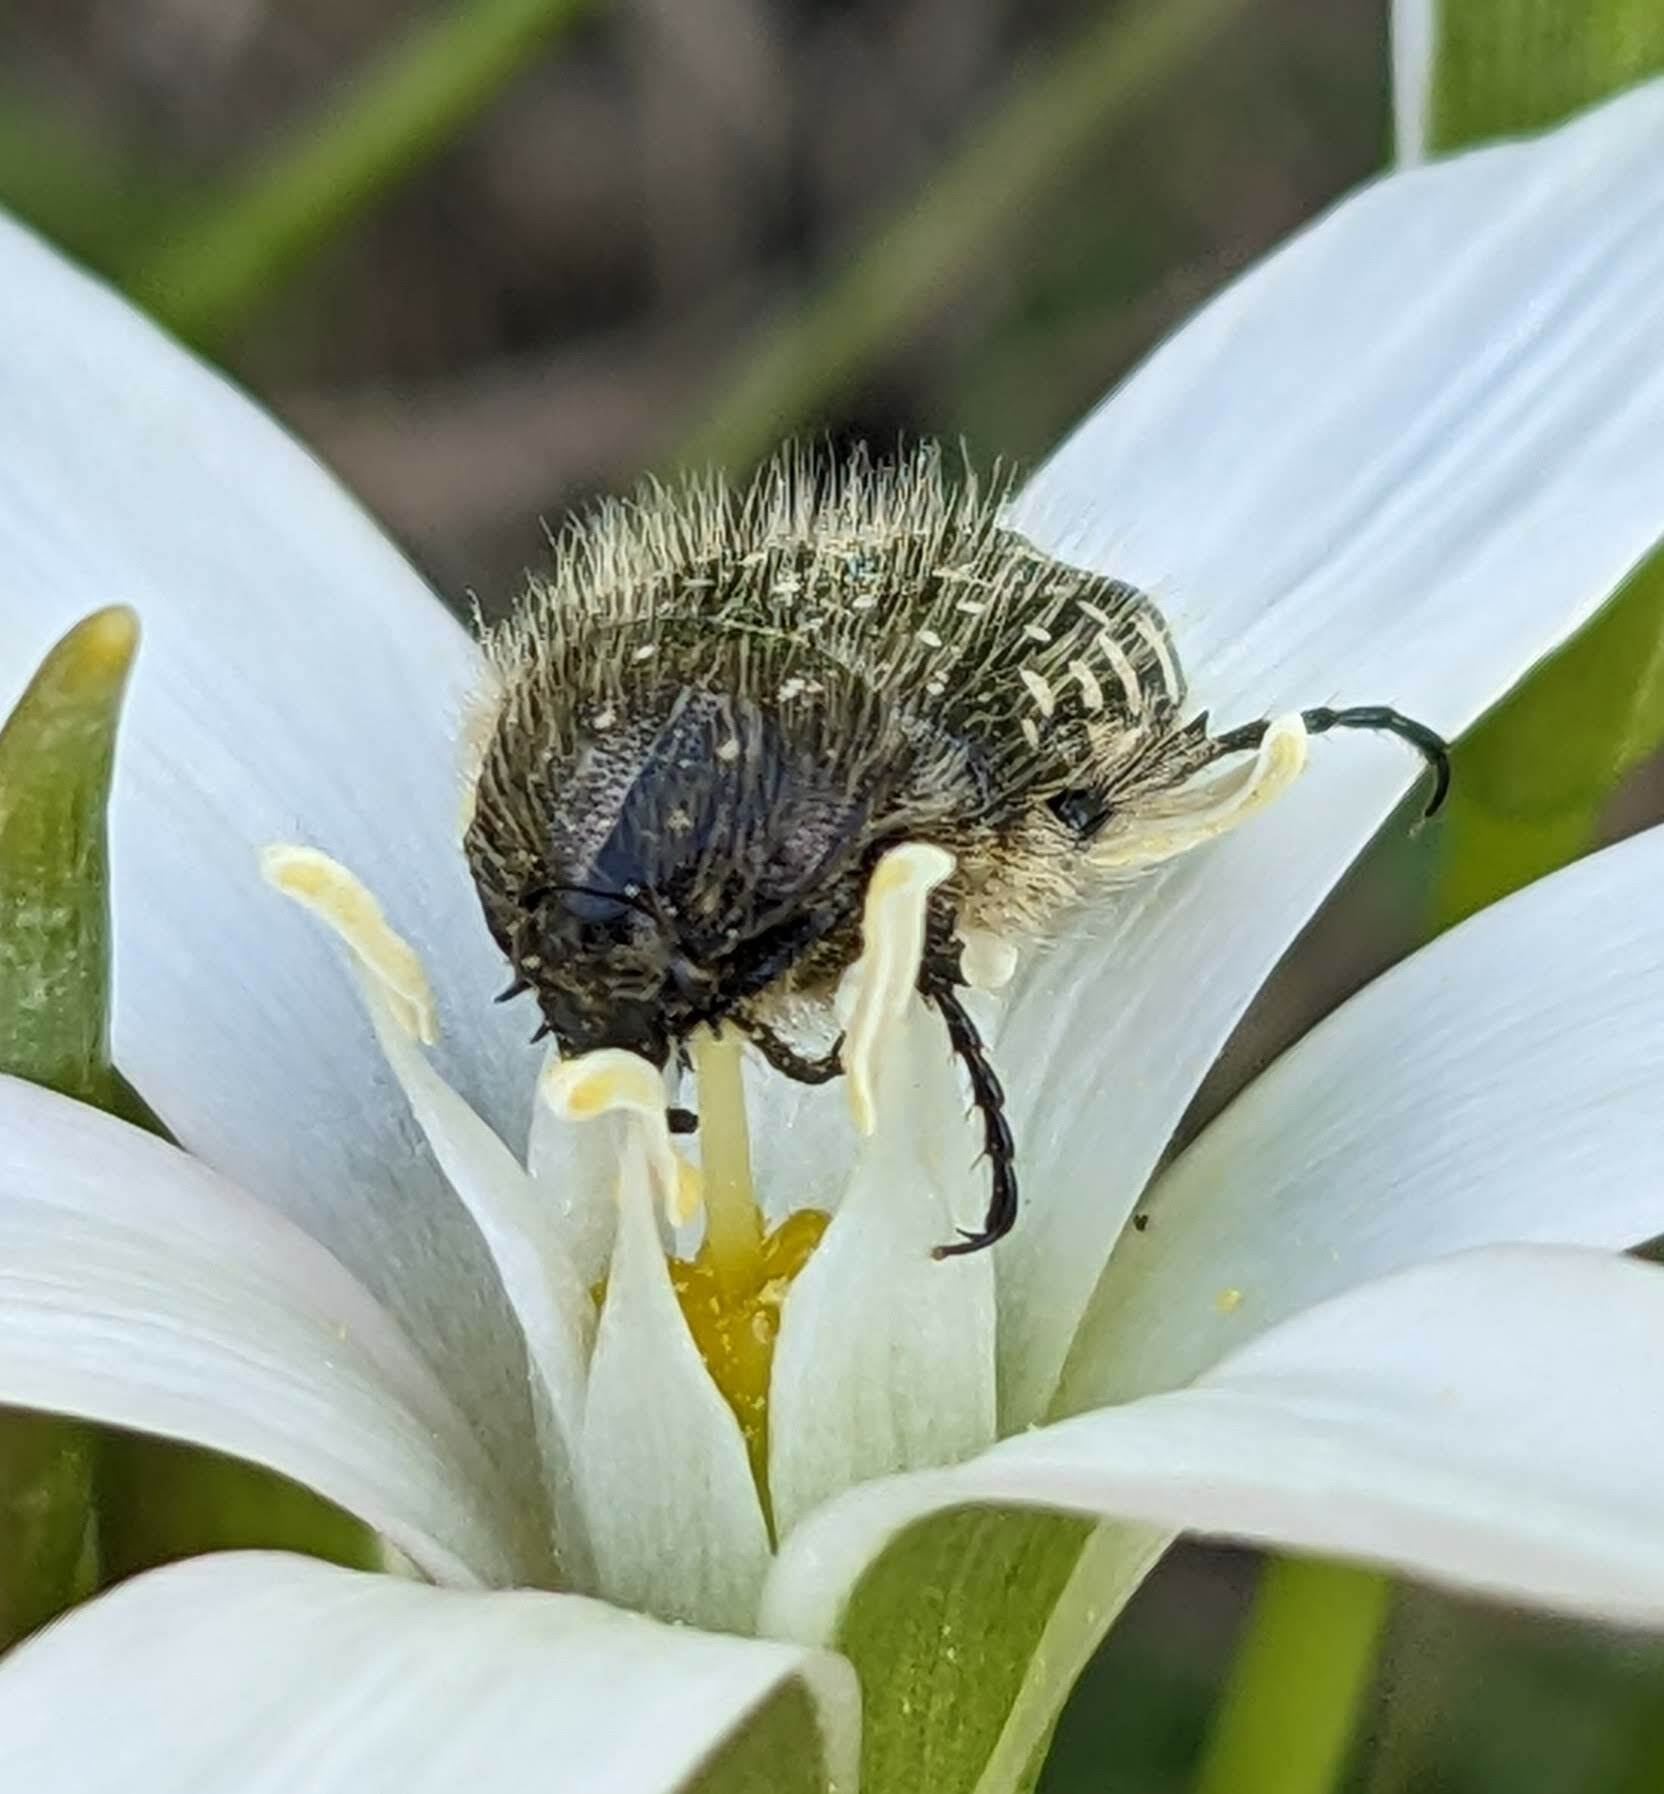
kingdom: Animalia
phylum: Arthropoda
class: Insecta
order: Coleoptera
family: Scarabaeidae
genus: Oxythyrea
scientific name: Oxythyrea funesta
